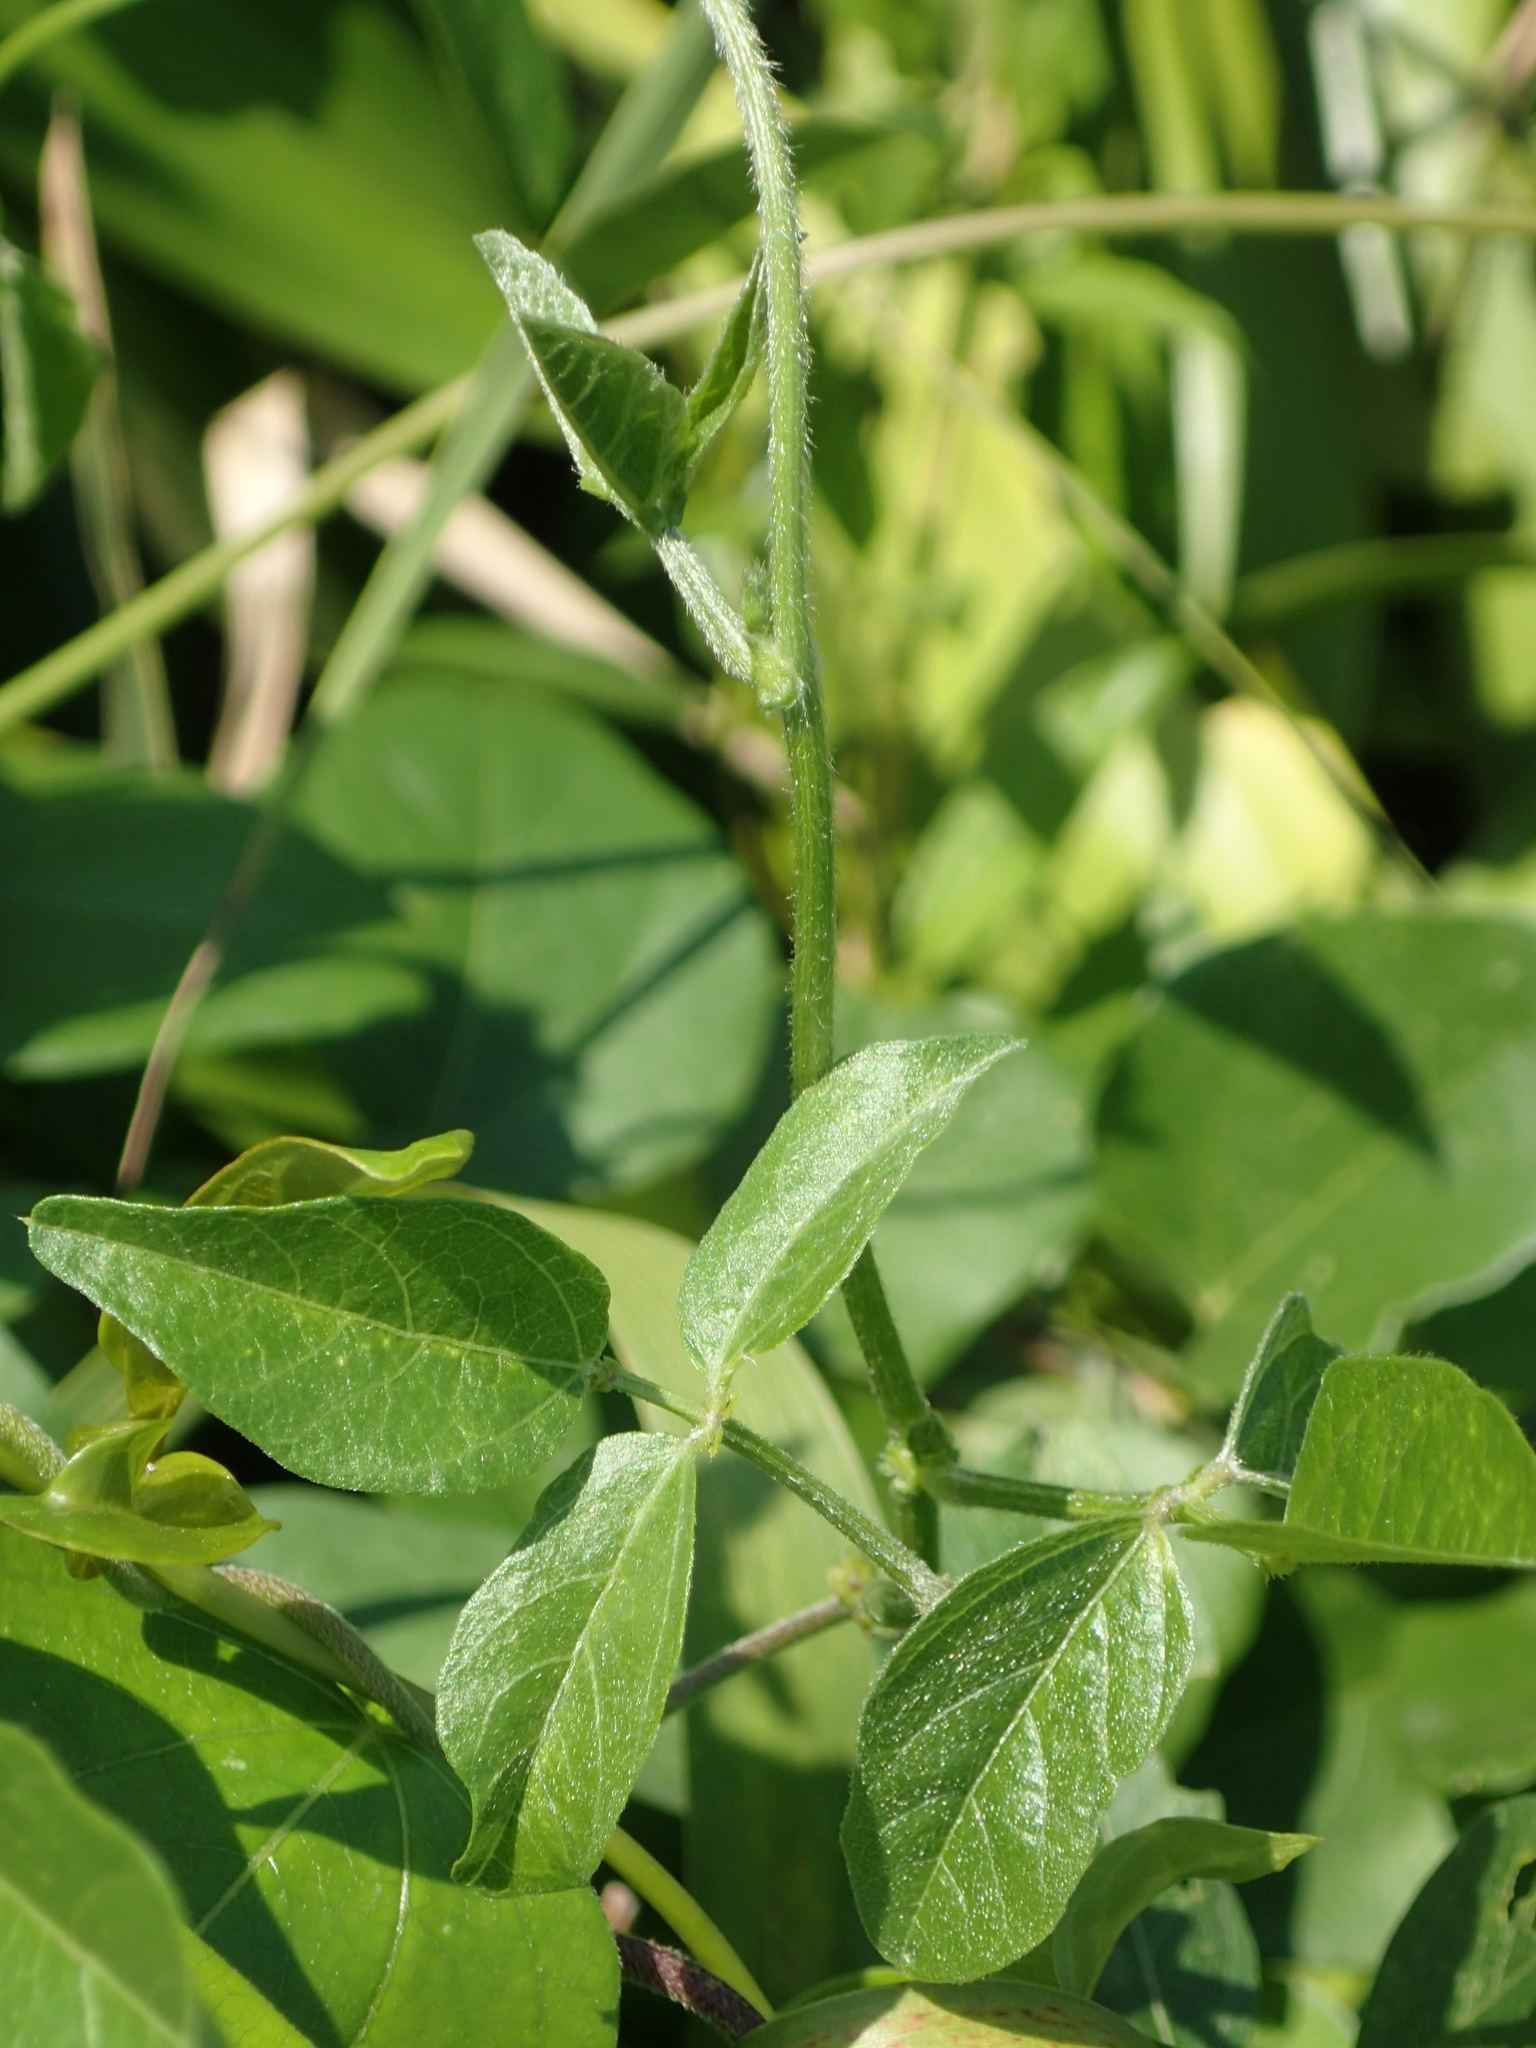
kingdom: Plantae
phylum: Tracheophyta
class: Magnoliopsida
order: Fabales
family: Fabaceae
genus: Vigna
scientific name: Vigna luteola
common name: Hairypod cowpea
